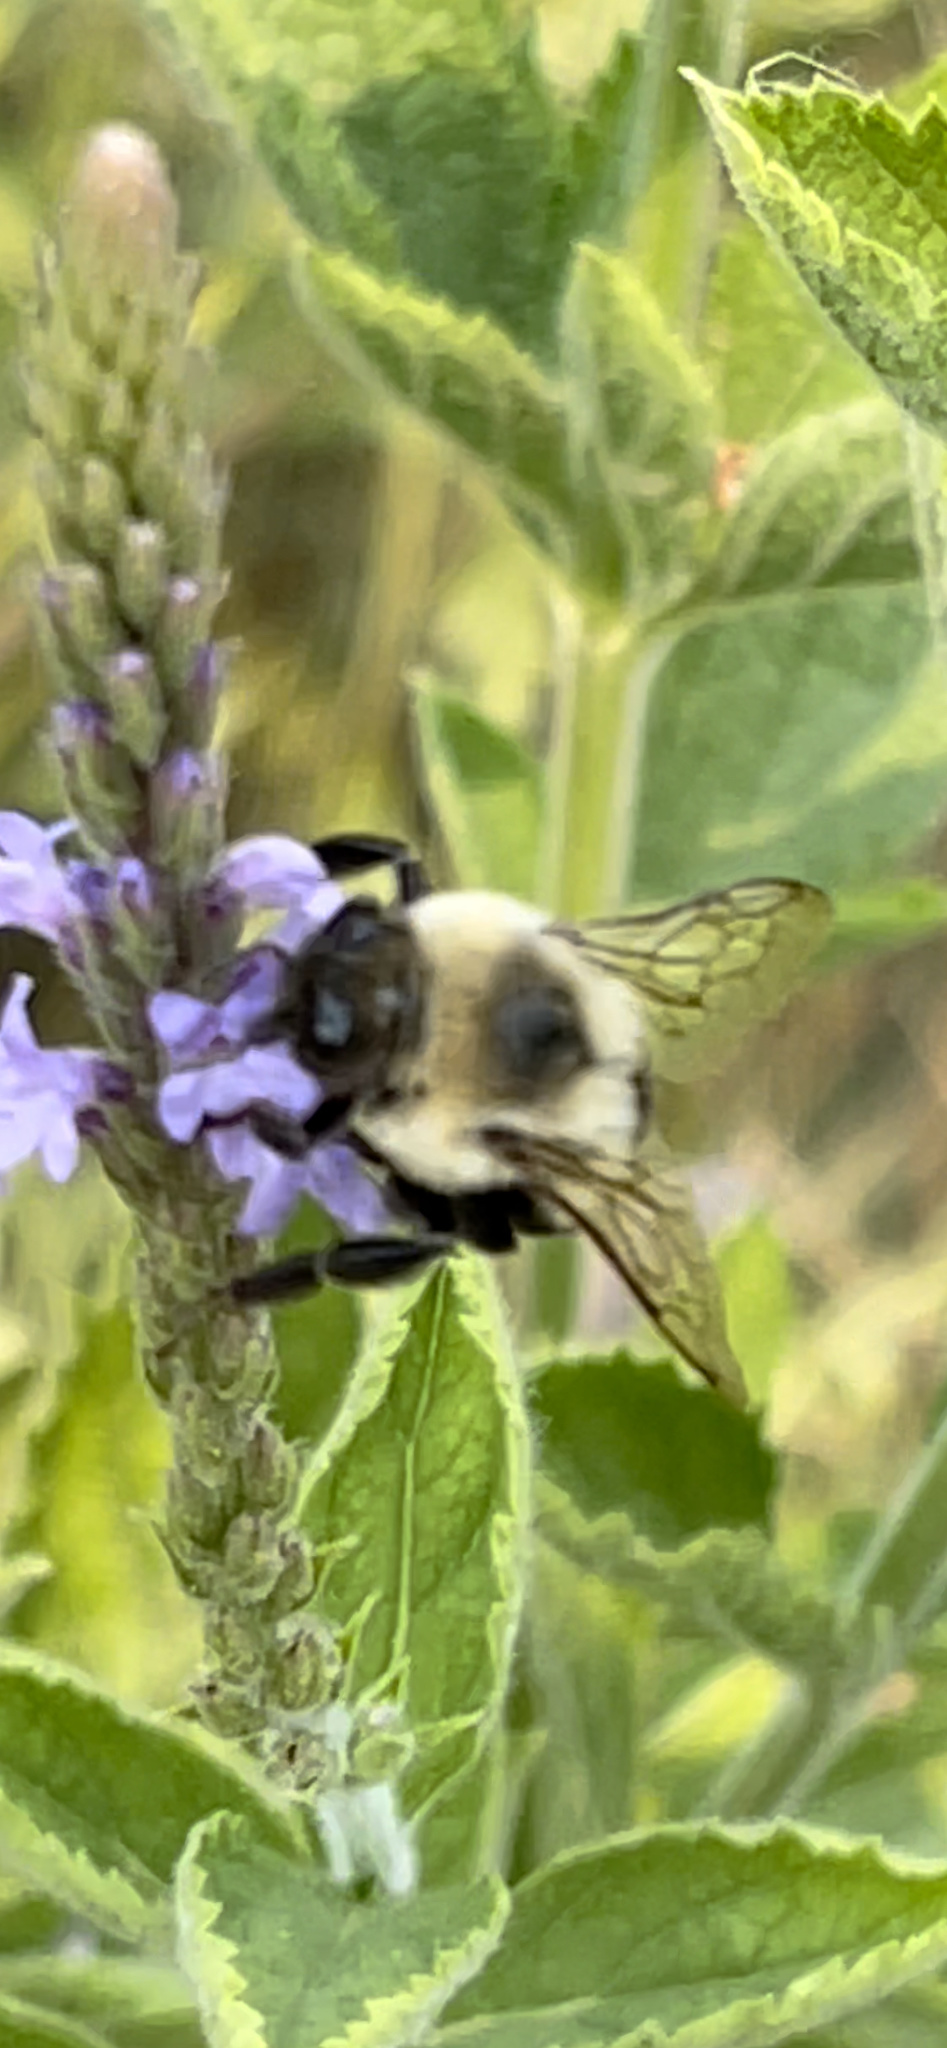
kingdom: Animalia
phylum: Arthropoda
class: Insecta
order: Hymenoptera
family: Apidae
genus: Bombus
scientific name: Bombus impatiens
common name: Common eastern bumble bee
